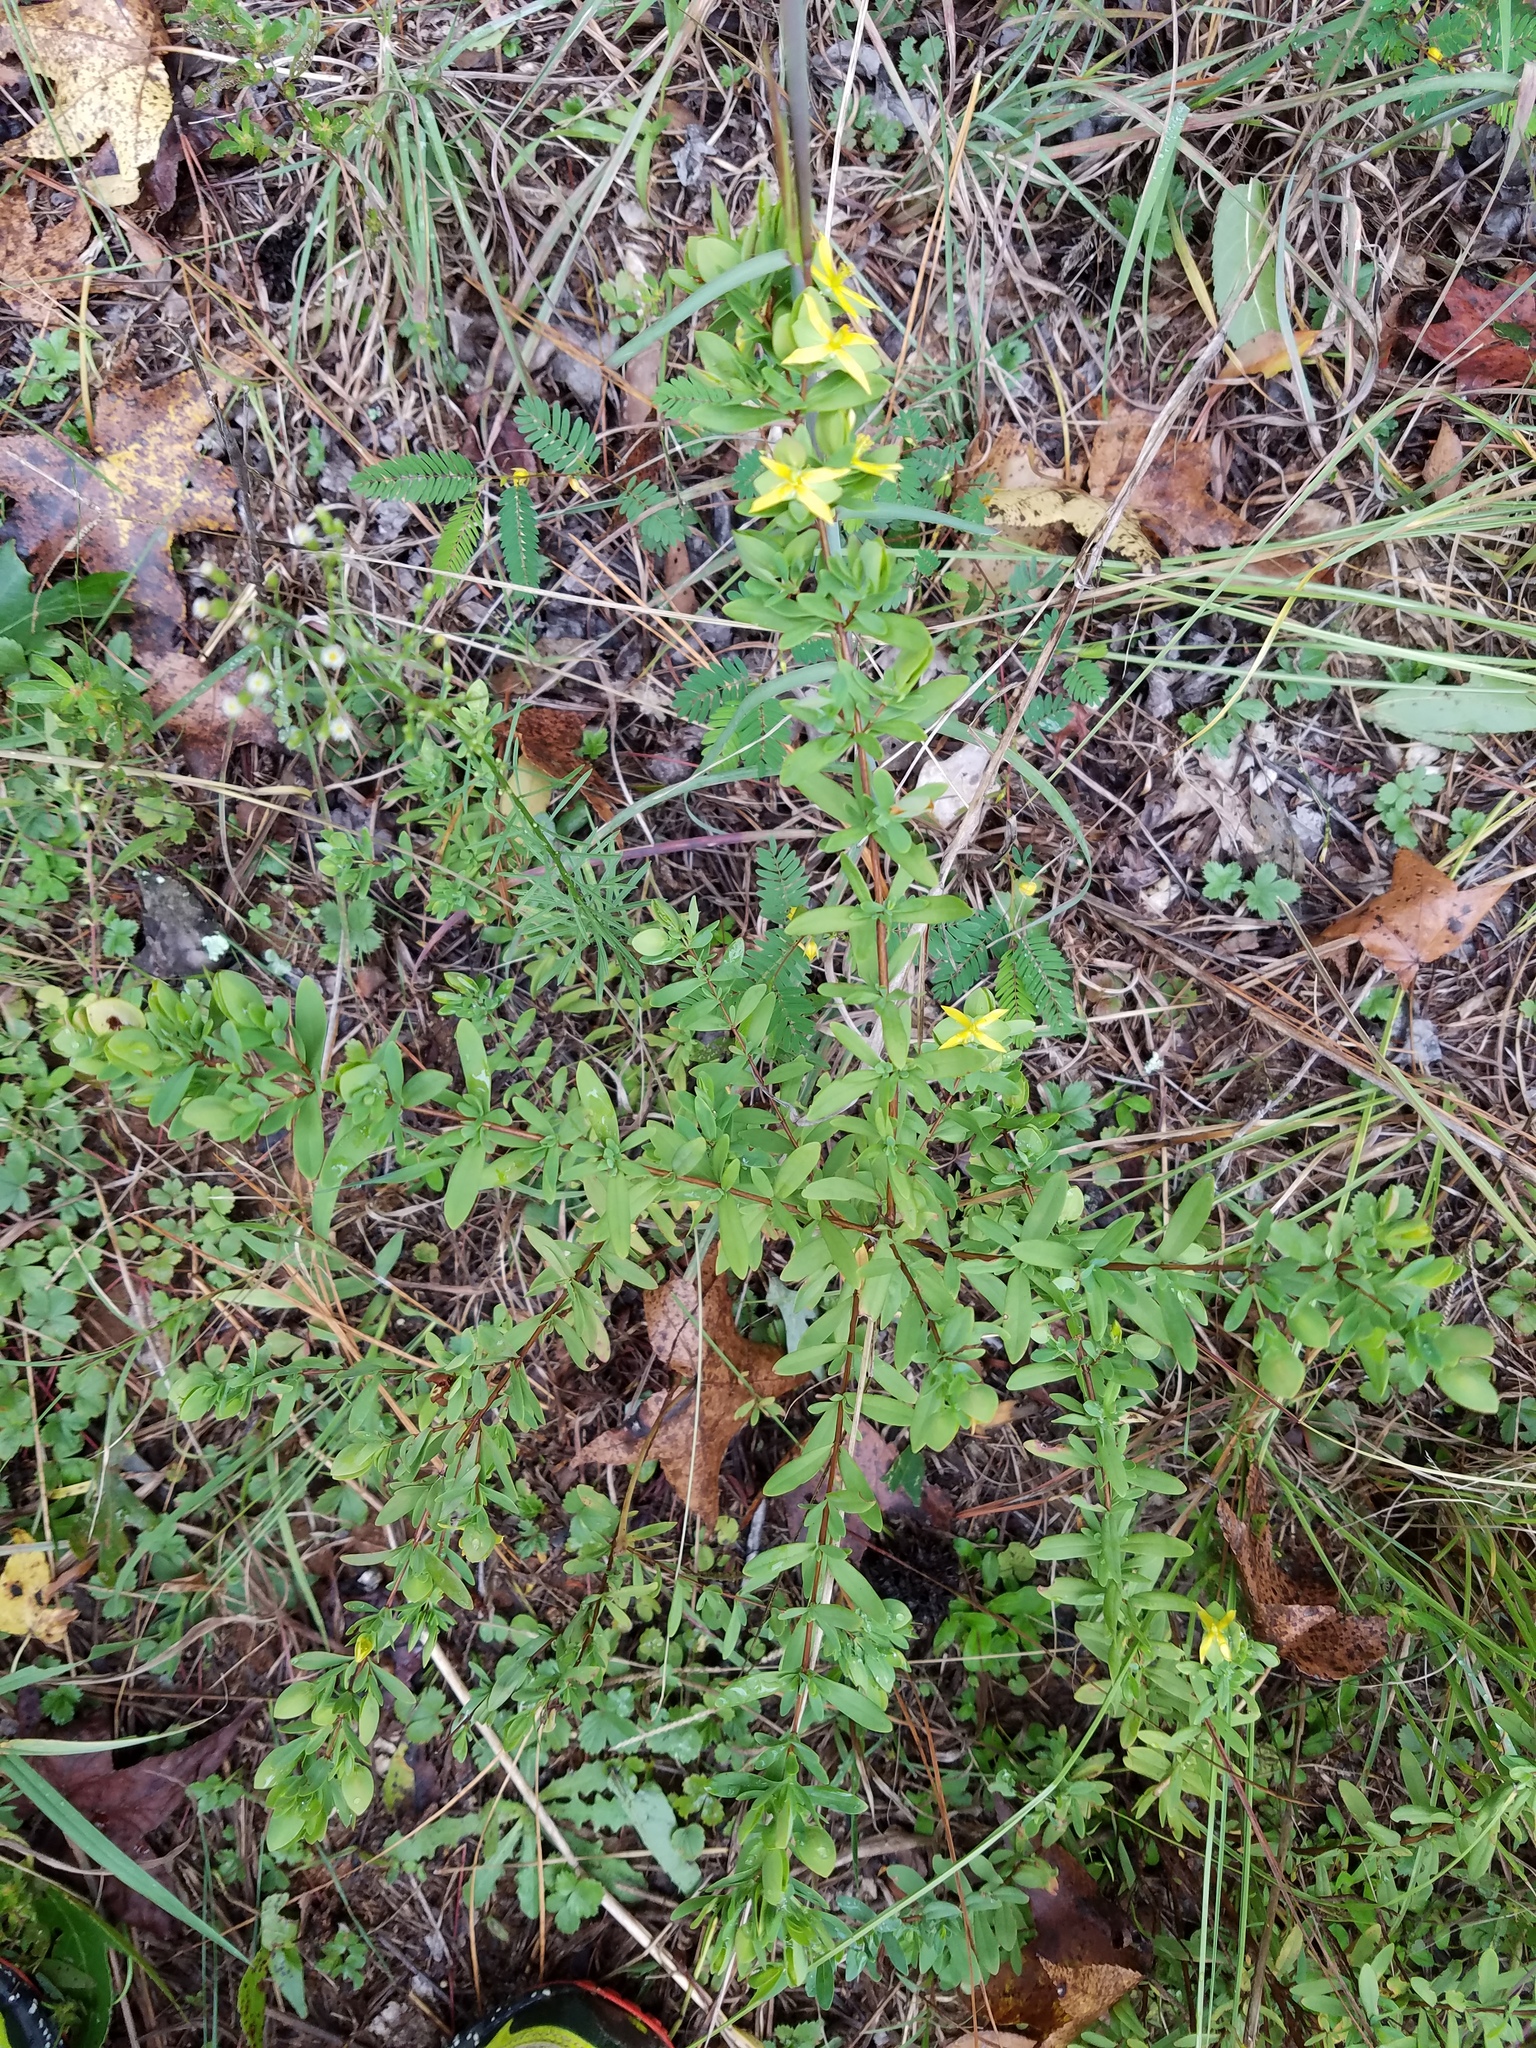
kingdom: Plantae
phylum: Tracheophyta
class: Magnoliopsida
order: Malpighiales
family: Hypericaceae
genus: Hypericum
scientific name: Hypericum hypericoides
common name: St. andrew's cross
